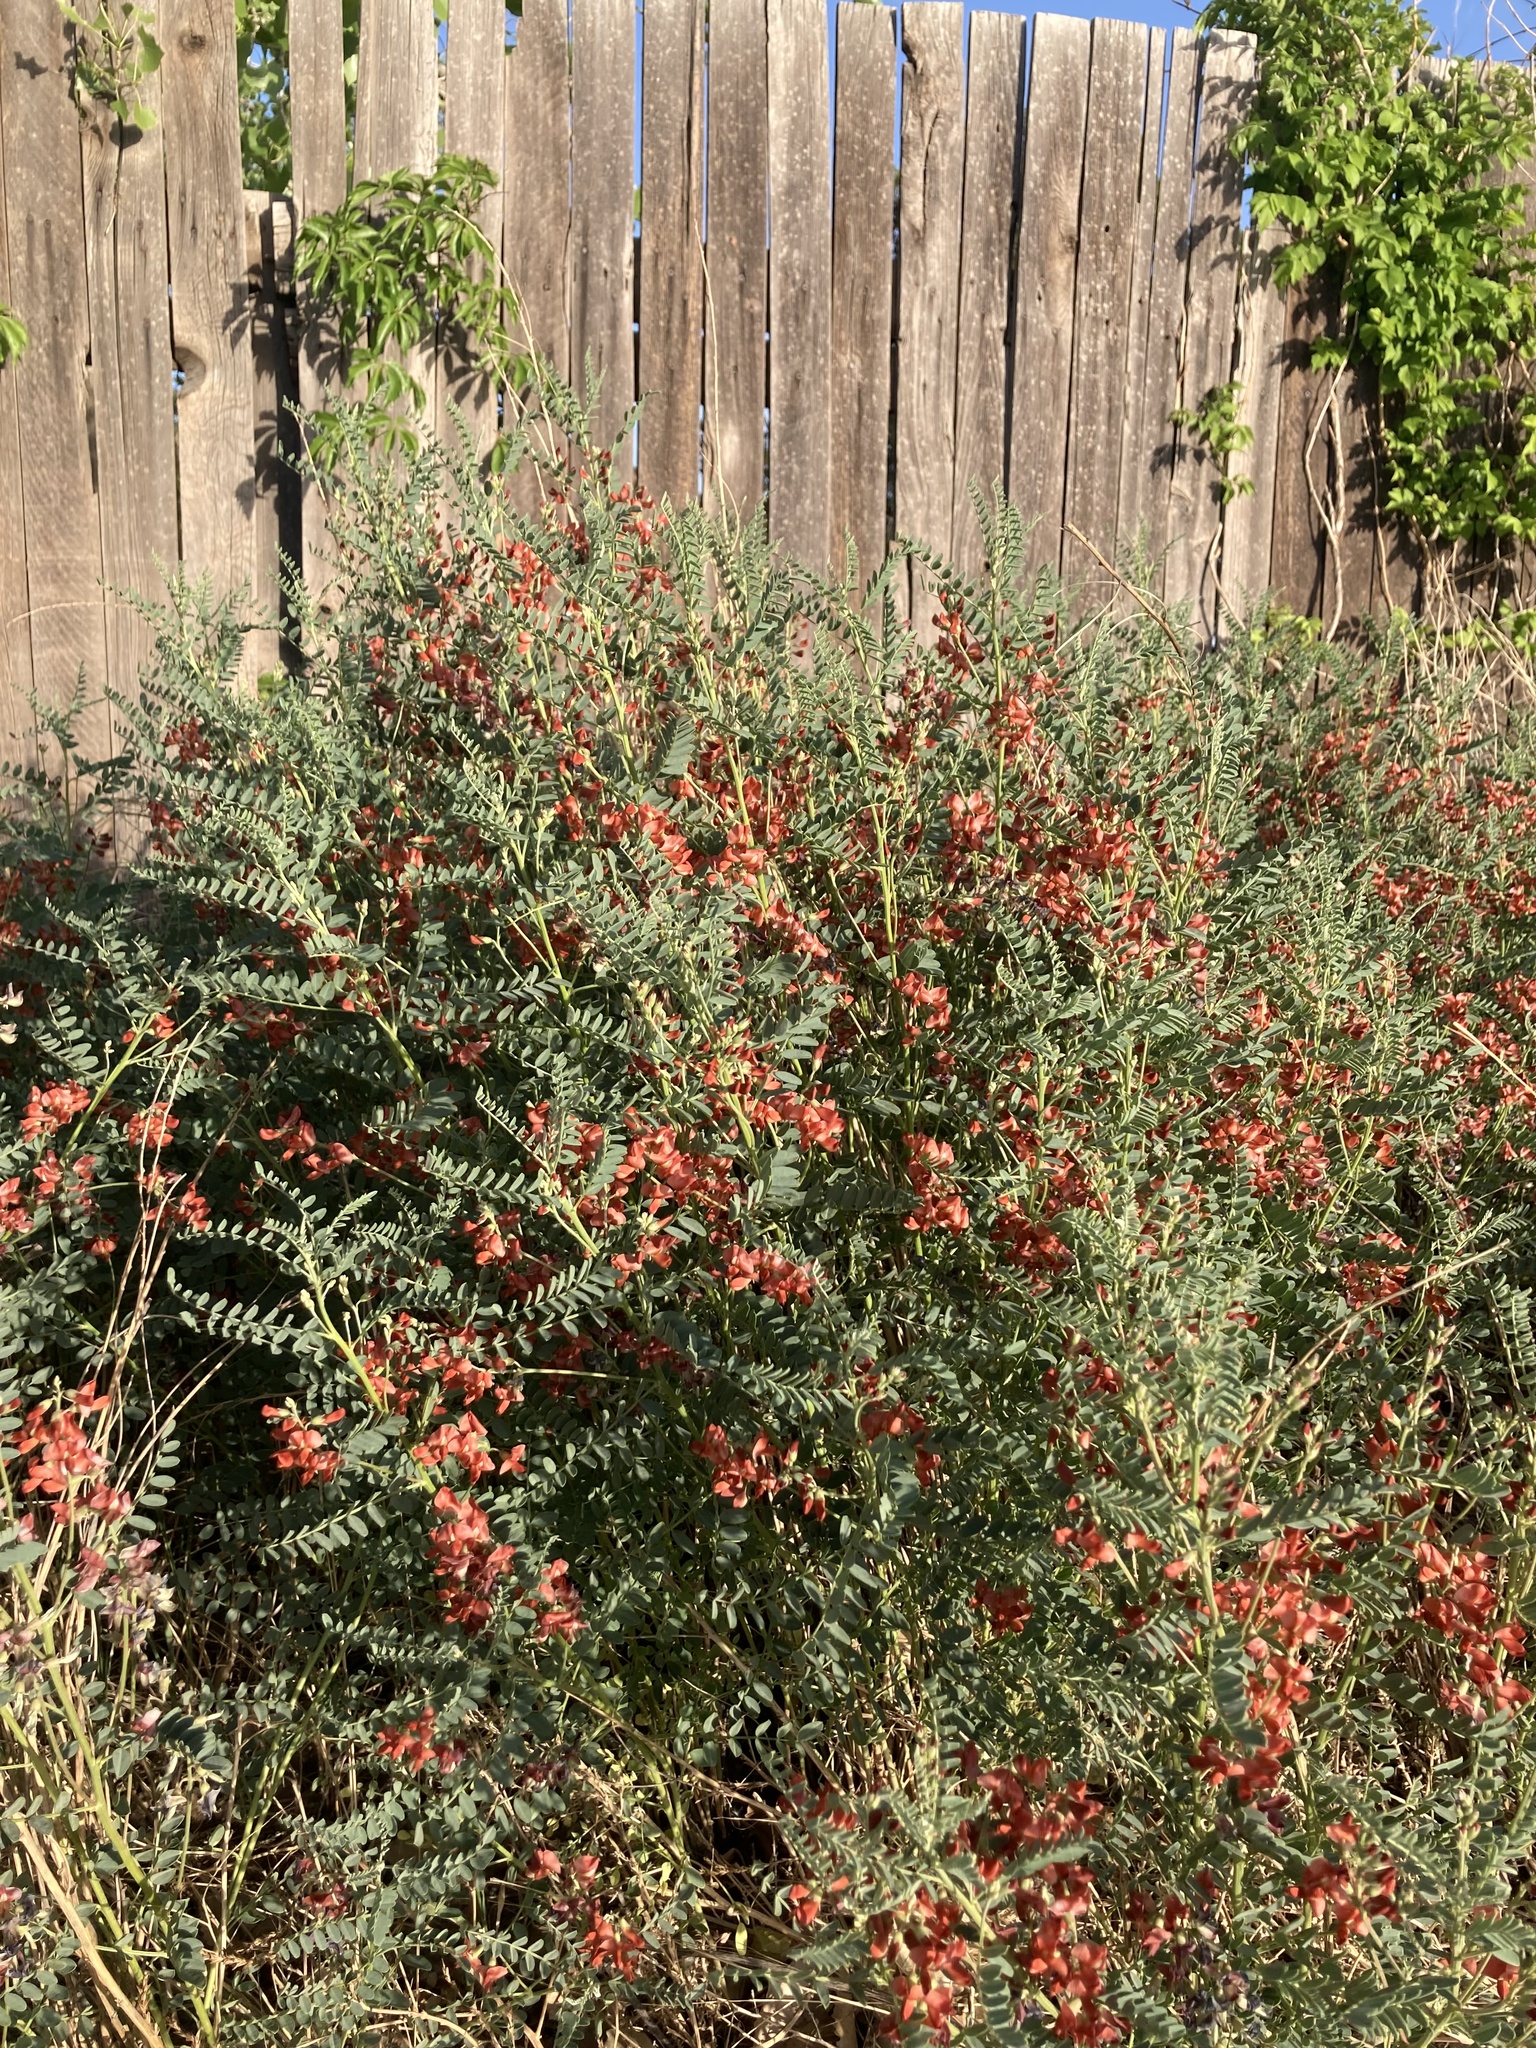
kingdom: Plantae
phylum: Tracheophyta
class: Magnoliopsida
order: Fabales
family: Fabaceae
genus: Sphaerophysa
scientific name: Sphaerophysa salsula
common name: Alkali swainsonpea
